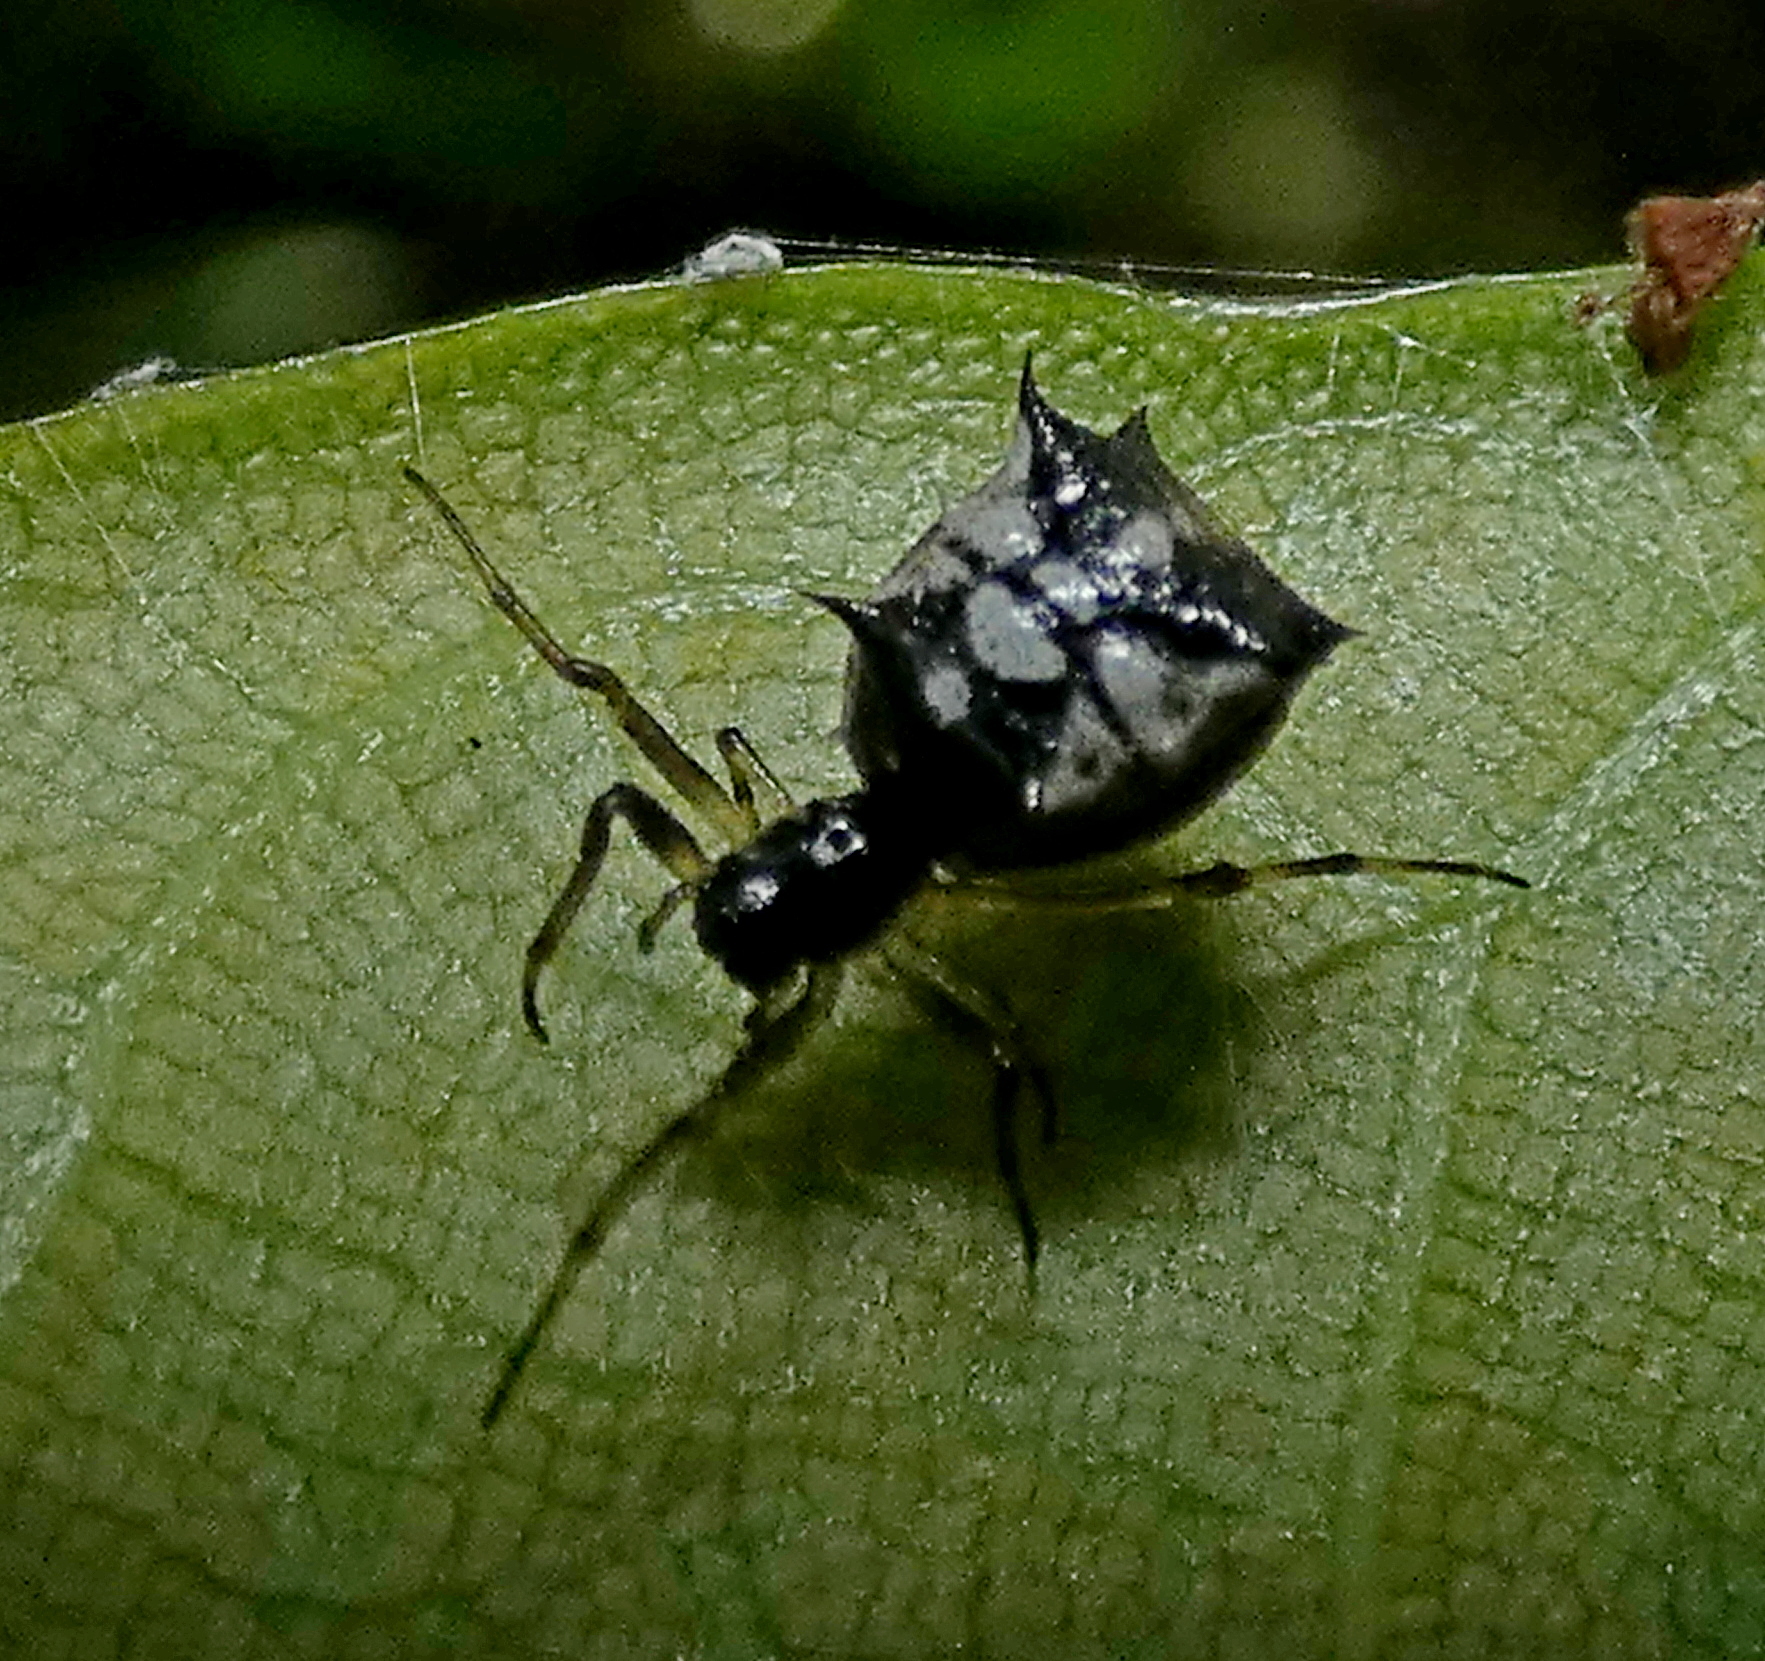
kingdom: Animalia
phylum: Arthropoda
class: Arachnida
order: Araneae
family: Araneidae
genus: Micrathena
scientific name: Micrathena picta
